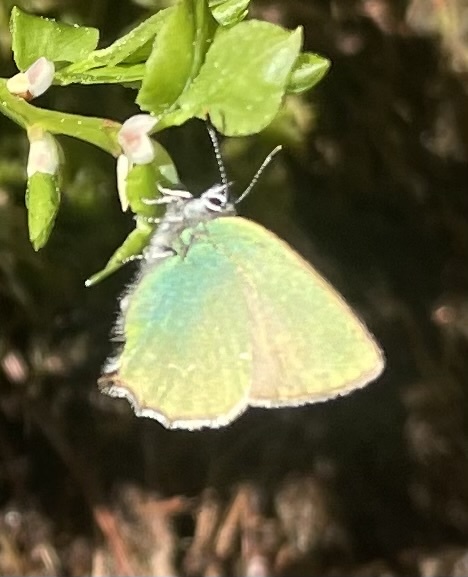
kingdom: Animalia
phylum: Arthropoda
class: Insecta
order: Lepidoptera
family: Lycaenidae
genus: Callophrys
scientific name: Callophrys rubi
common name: Green hairstreak
